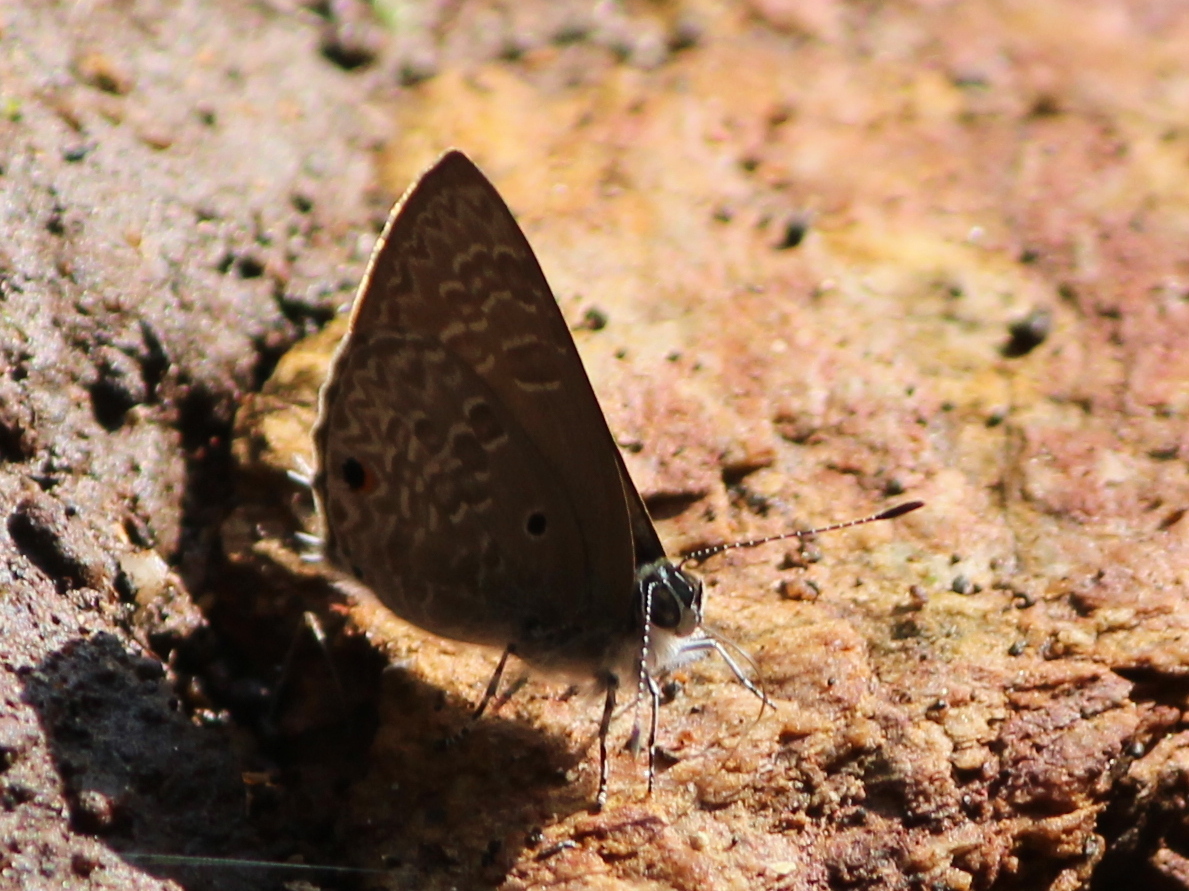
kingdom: Animalia
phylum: Arthropoda
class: Insecta
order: Lepidoptera
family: Lycaenidae
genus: Anthene
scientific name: Anthene lycaenina
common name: Pointed ciliate blue
